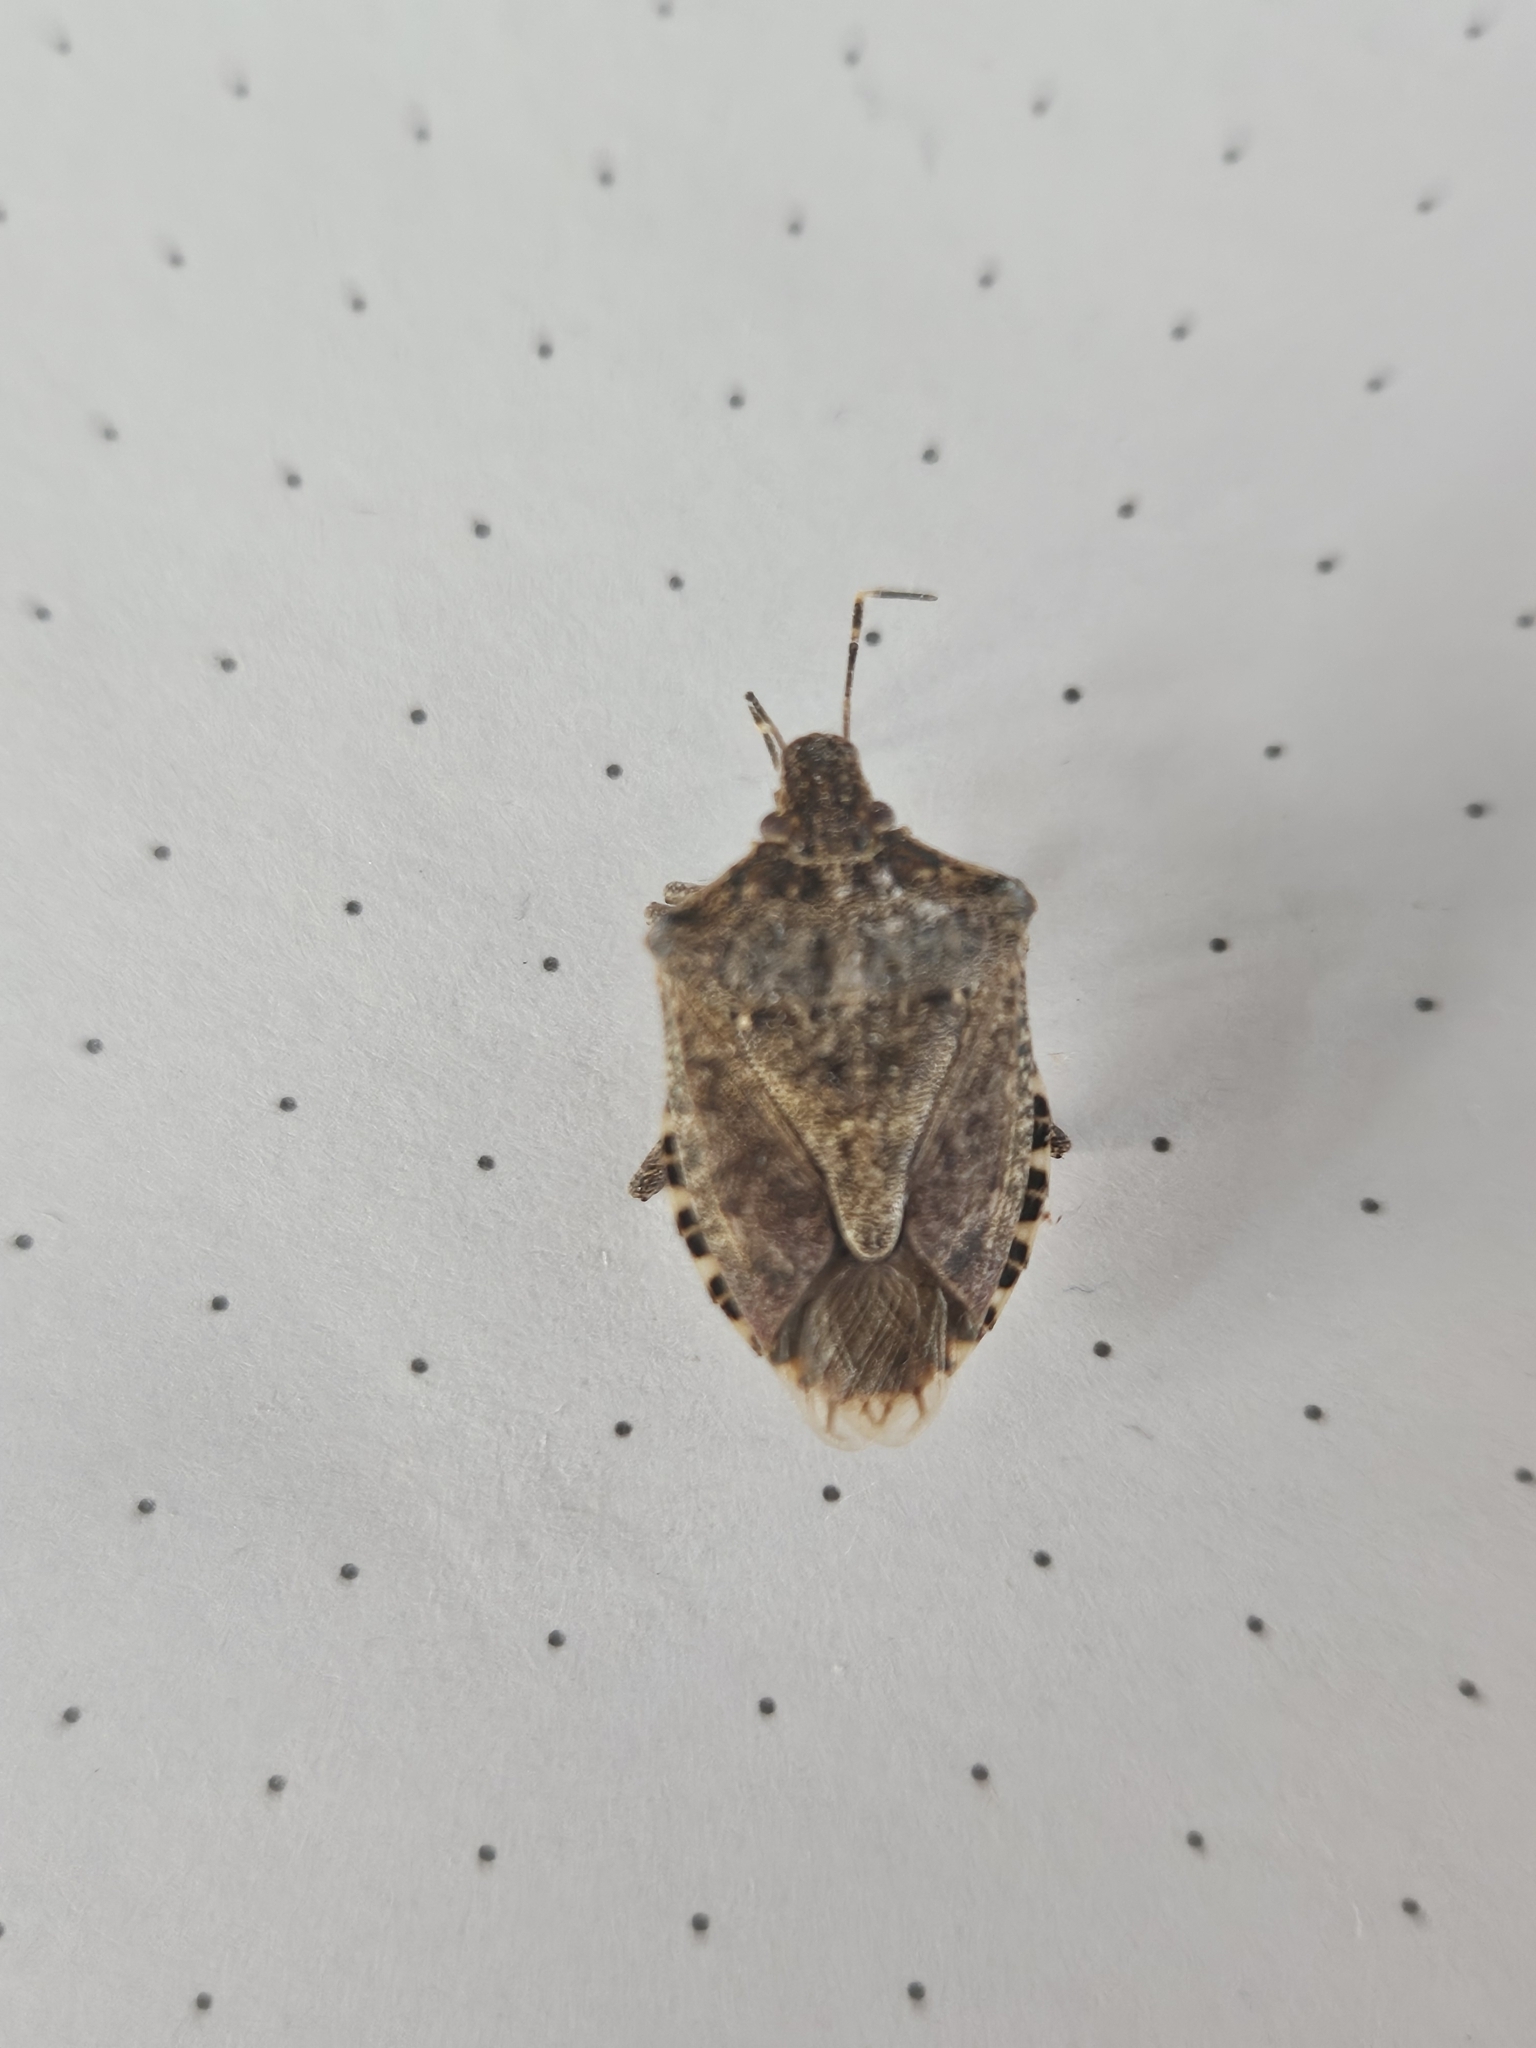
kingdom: Animalia
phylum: Arthropoda
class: Insecta
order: Hemiptera
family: Pentatomidae
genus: Halyomorpha
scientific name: Halyomorpha halys
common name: Brown marmorated stink bug
